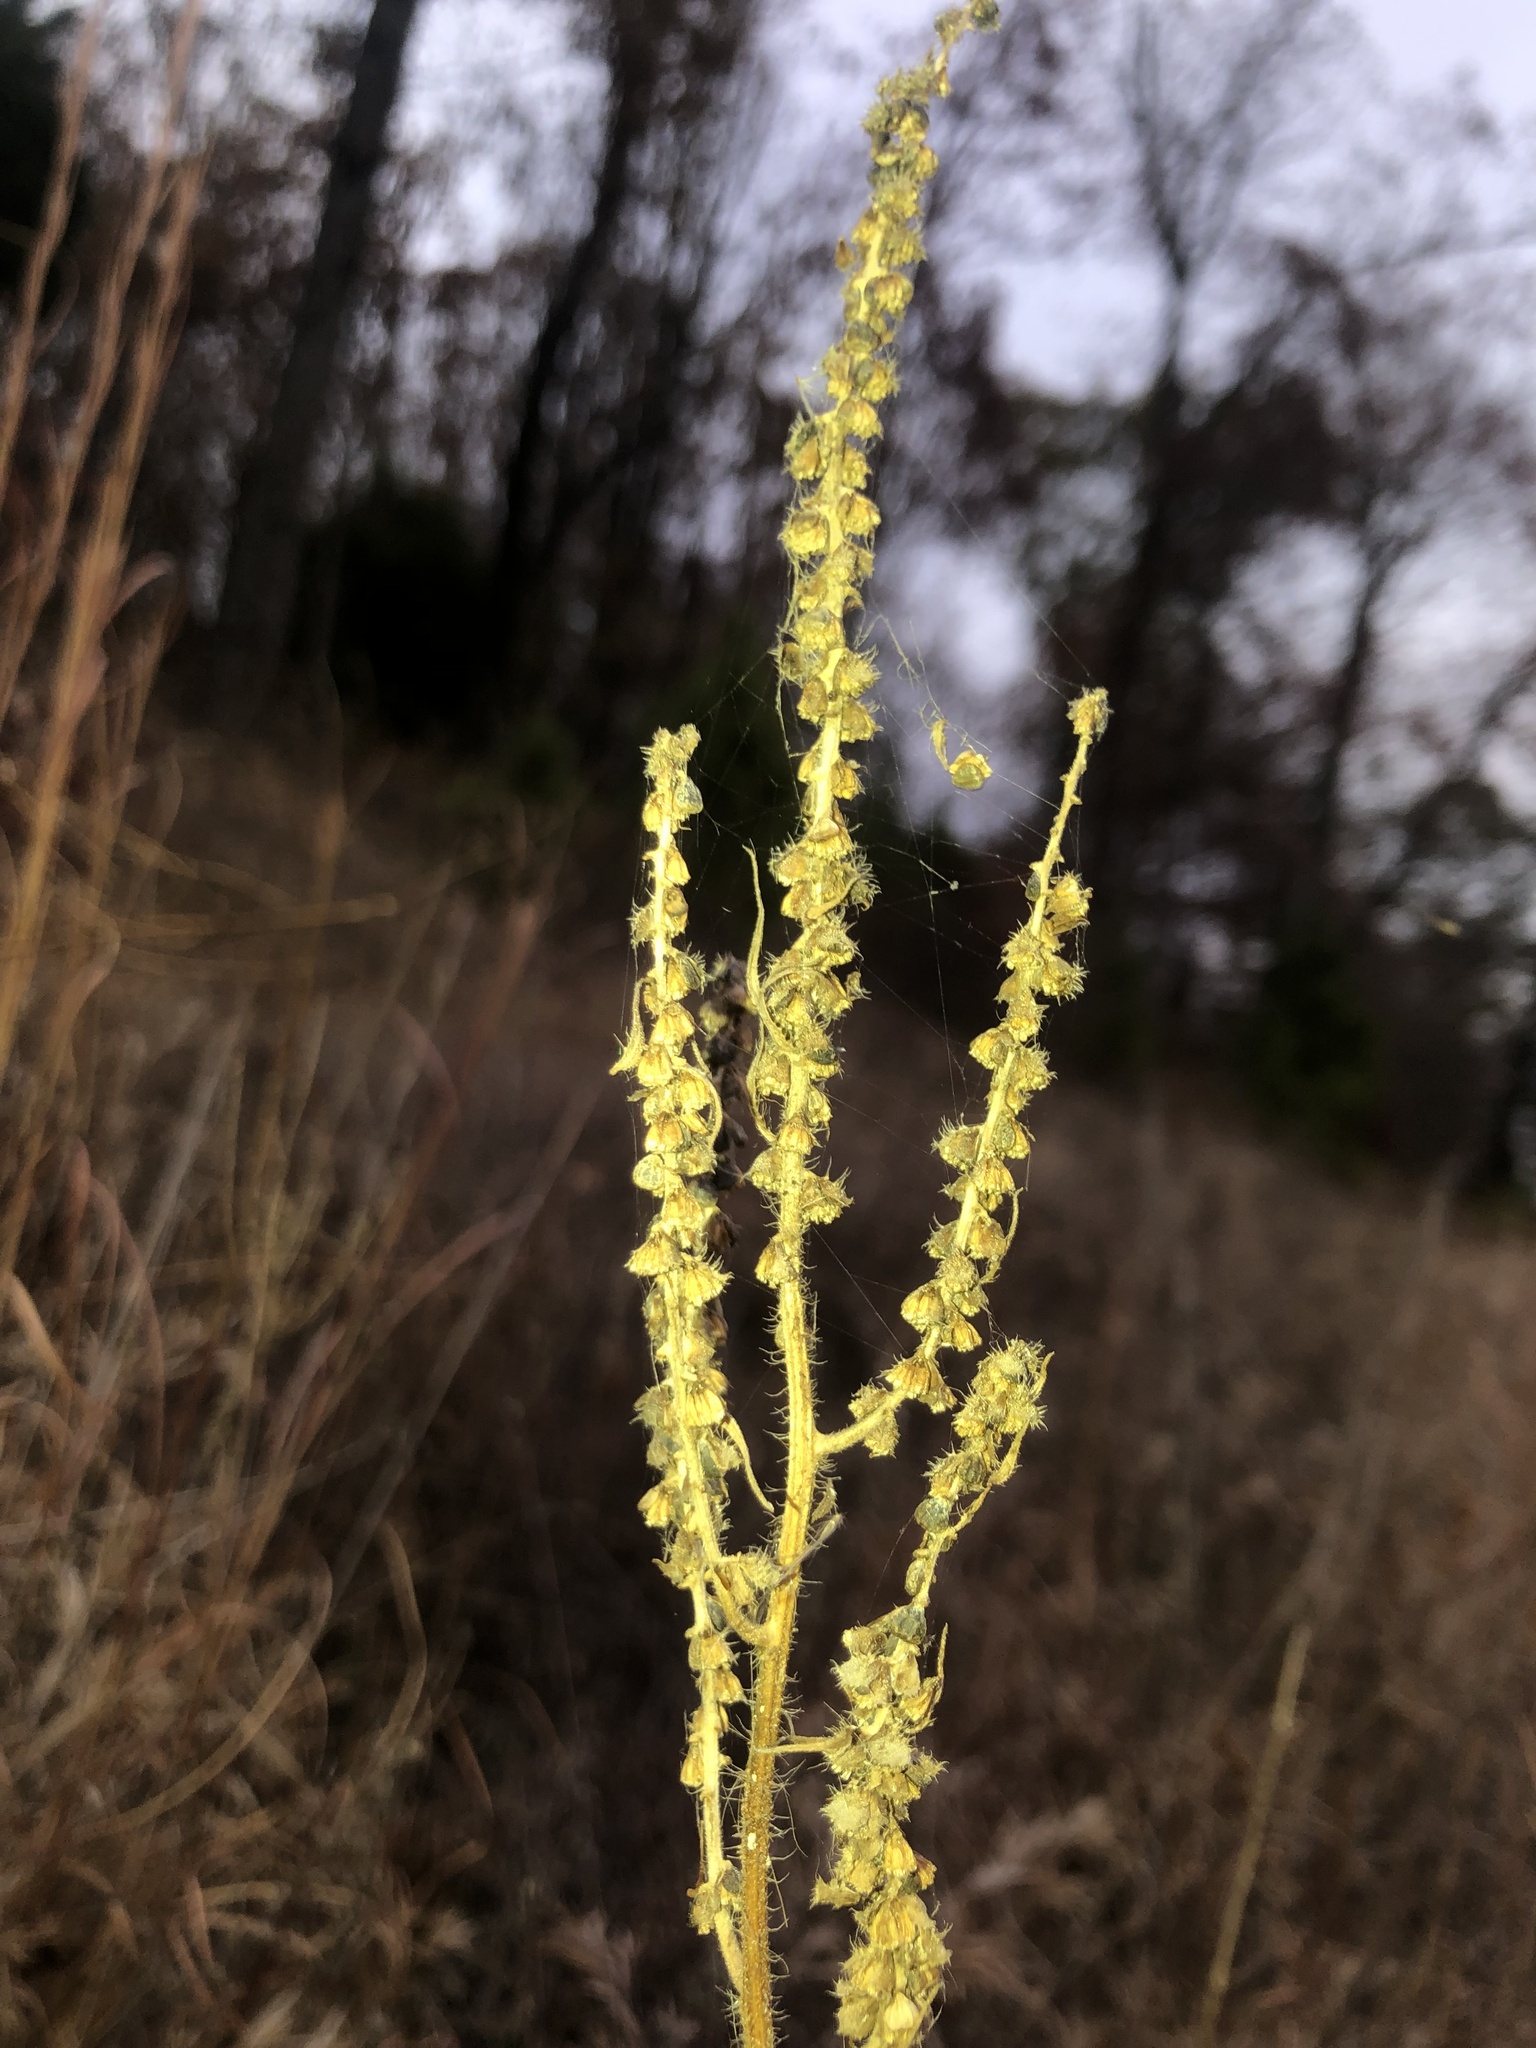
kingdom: Plantae
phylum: Tracheophyta
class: Magnoliopsida
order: Asterales
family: Asteraceae
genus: Iva
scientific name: Iva annua
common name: Marsh-elder
